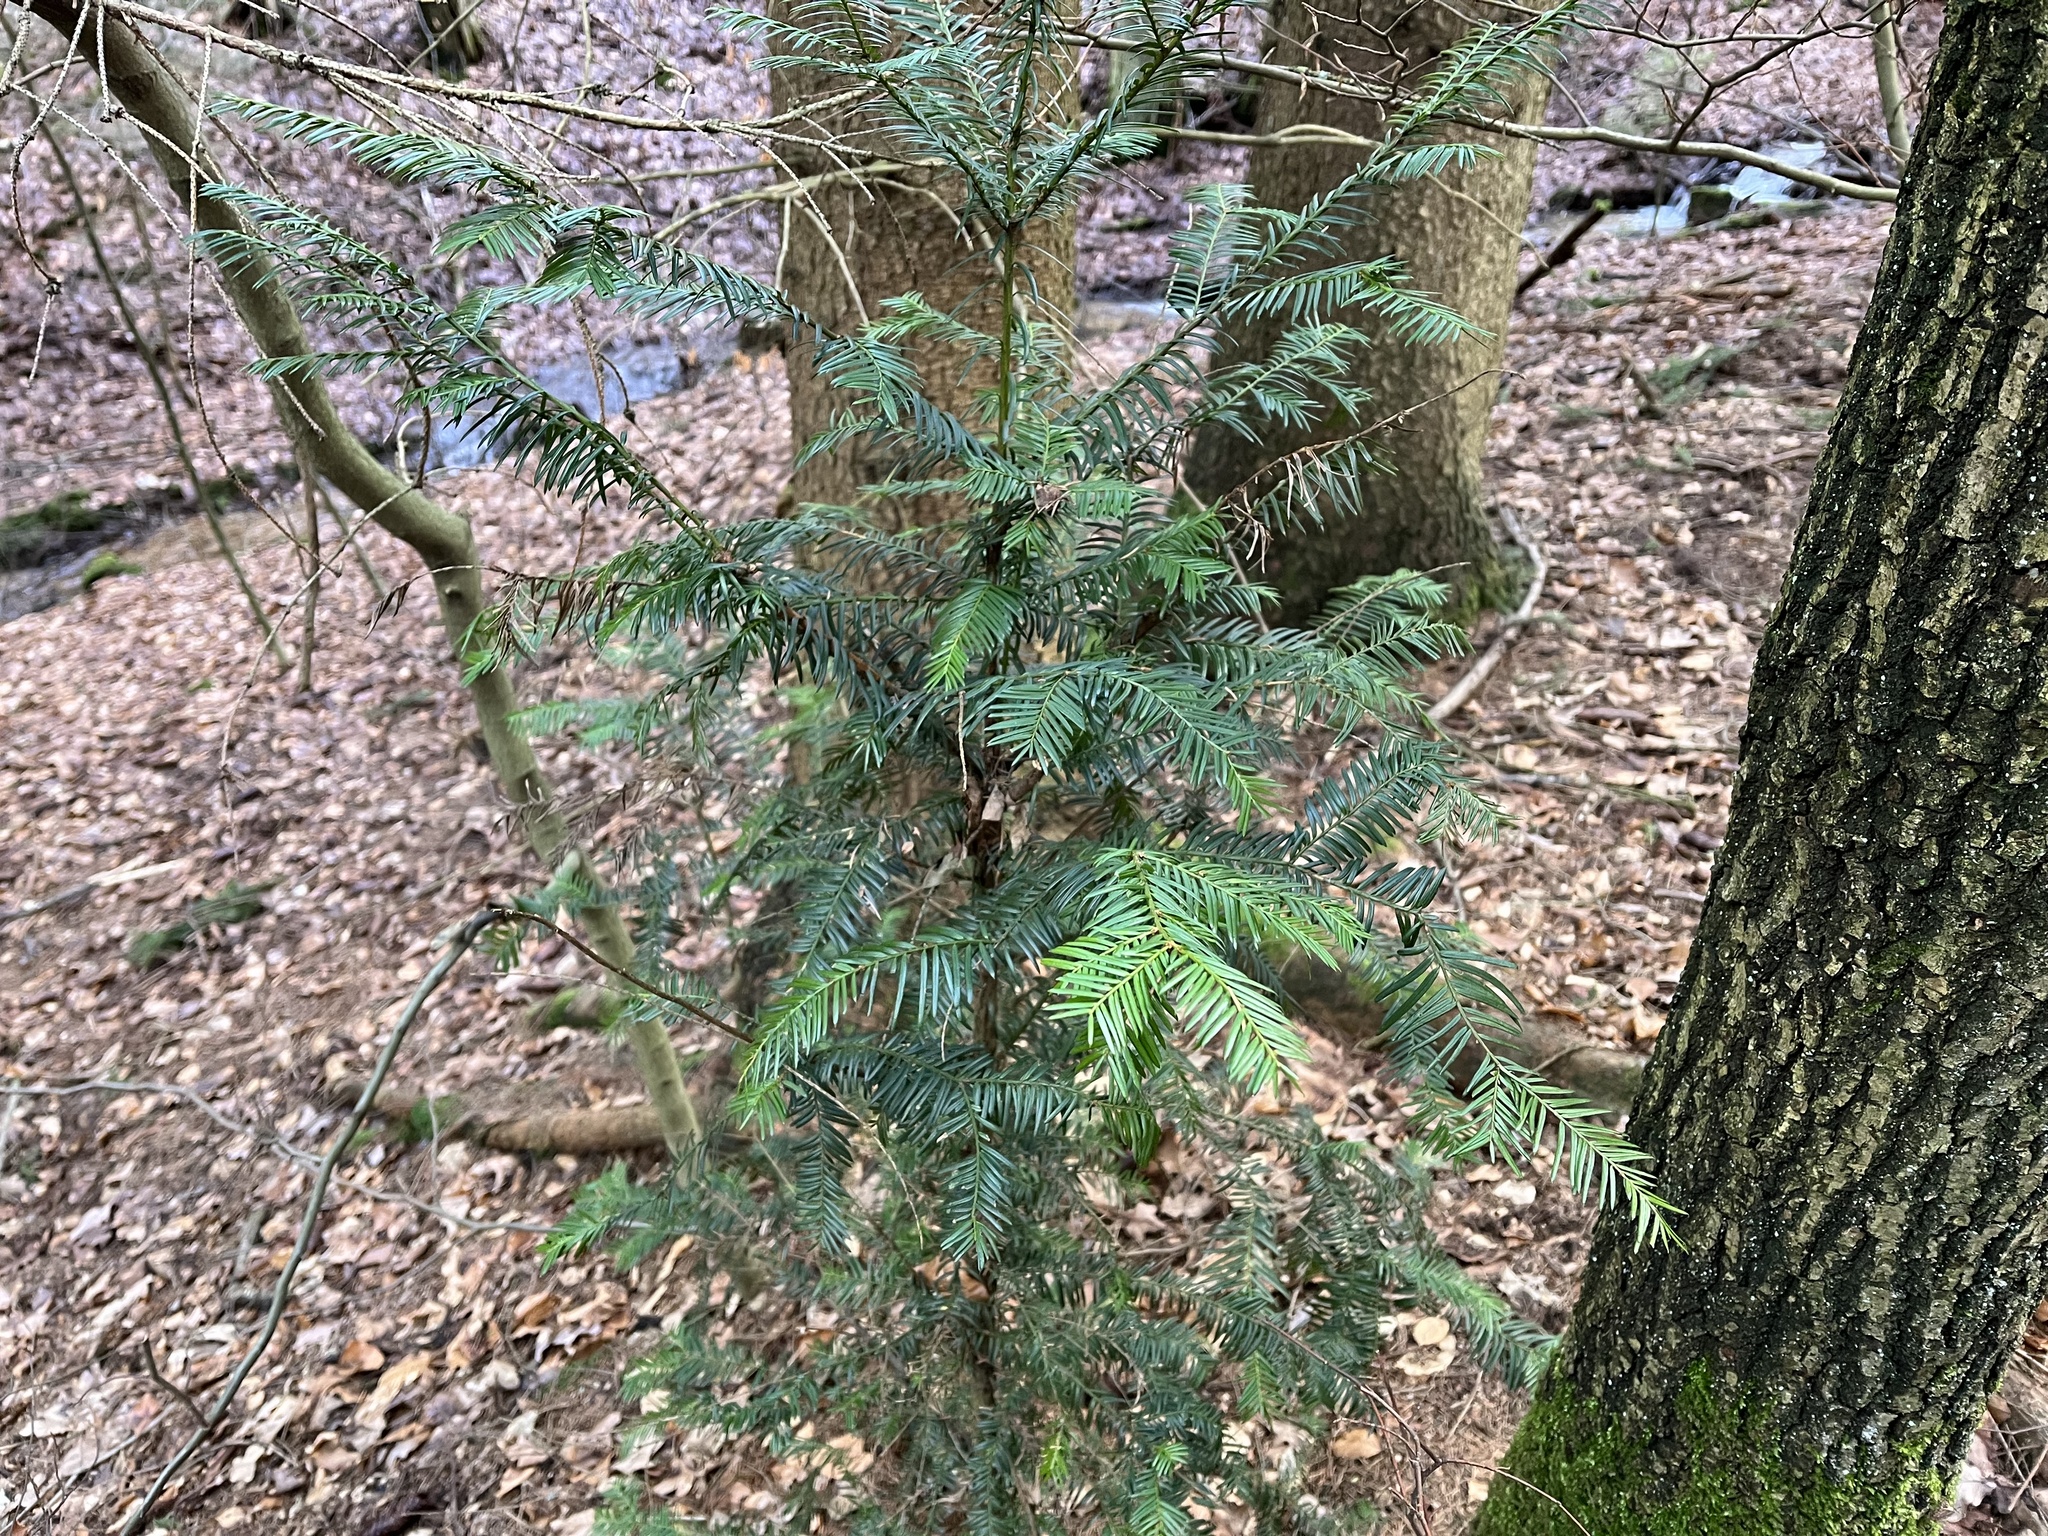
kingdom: Plantae
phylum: Tracheophyta
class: Pinopsida
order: Pinales
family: Taxaceae
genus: Taxus
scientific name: Taxus baccata
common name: Yew
